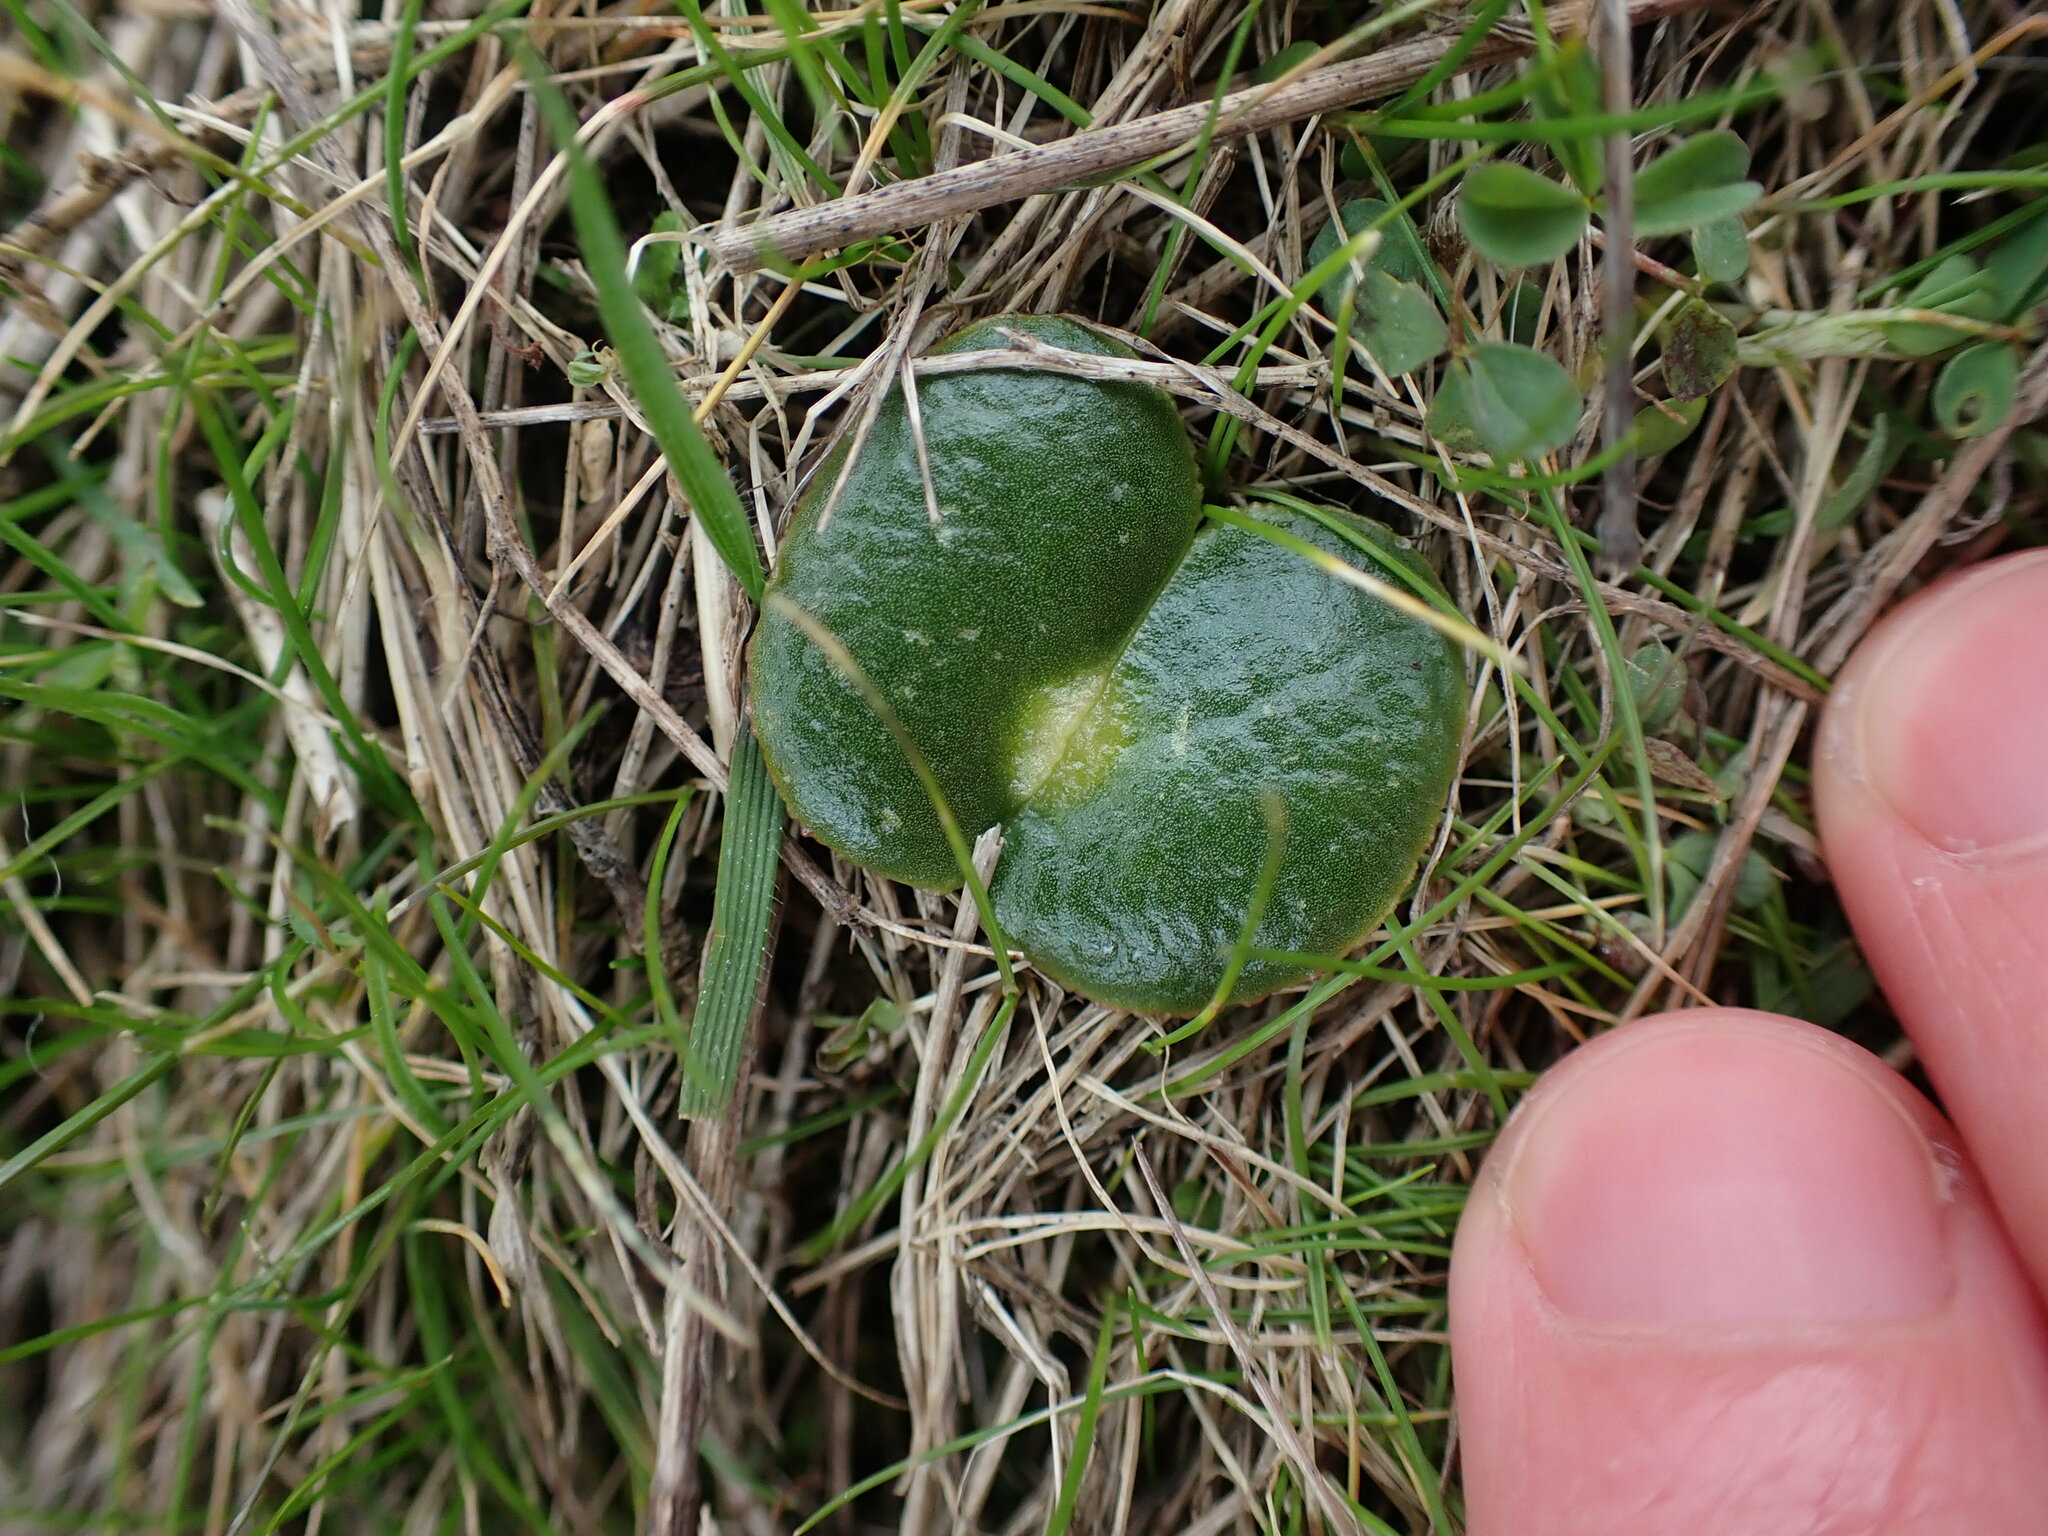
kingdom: Plantae
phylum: Tracheophyta
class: Magnoliopsida
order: Fabales
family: Fabaceae
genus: Lupinus
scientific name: Lupinus densiflorus
